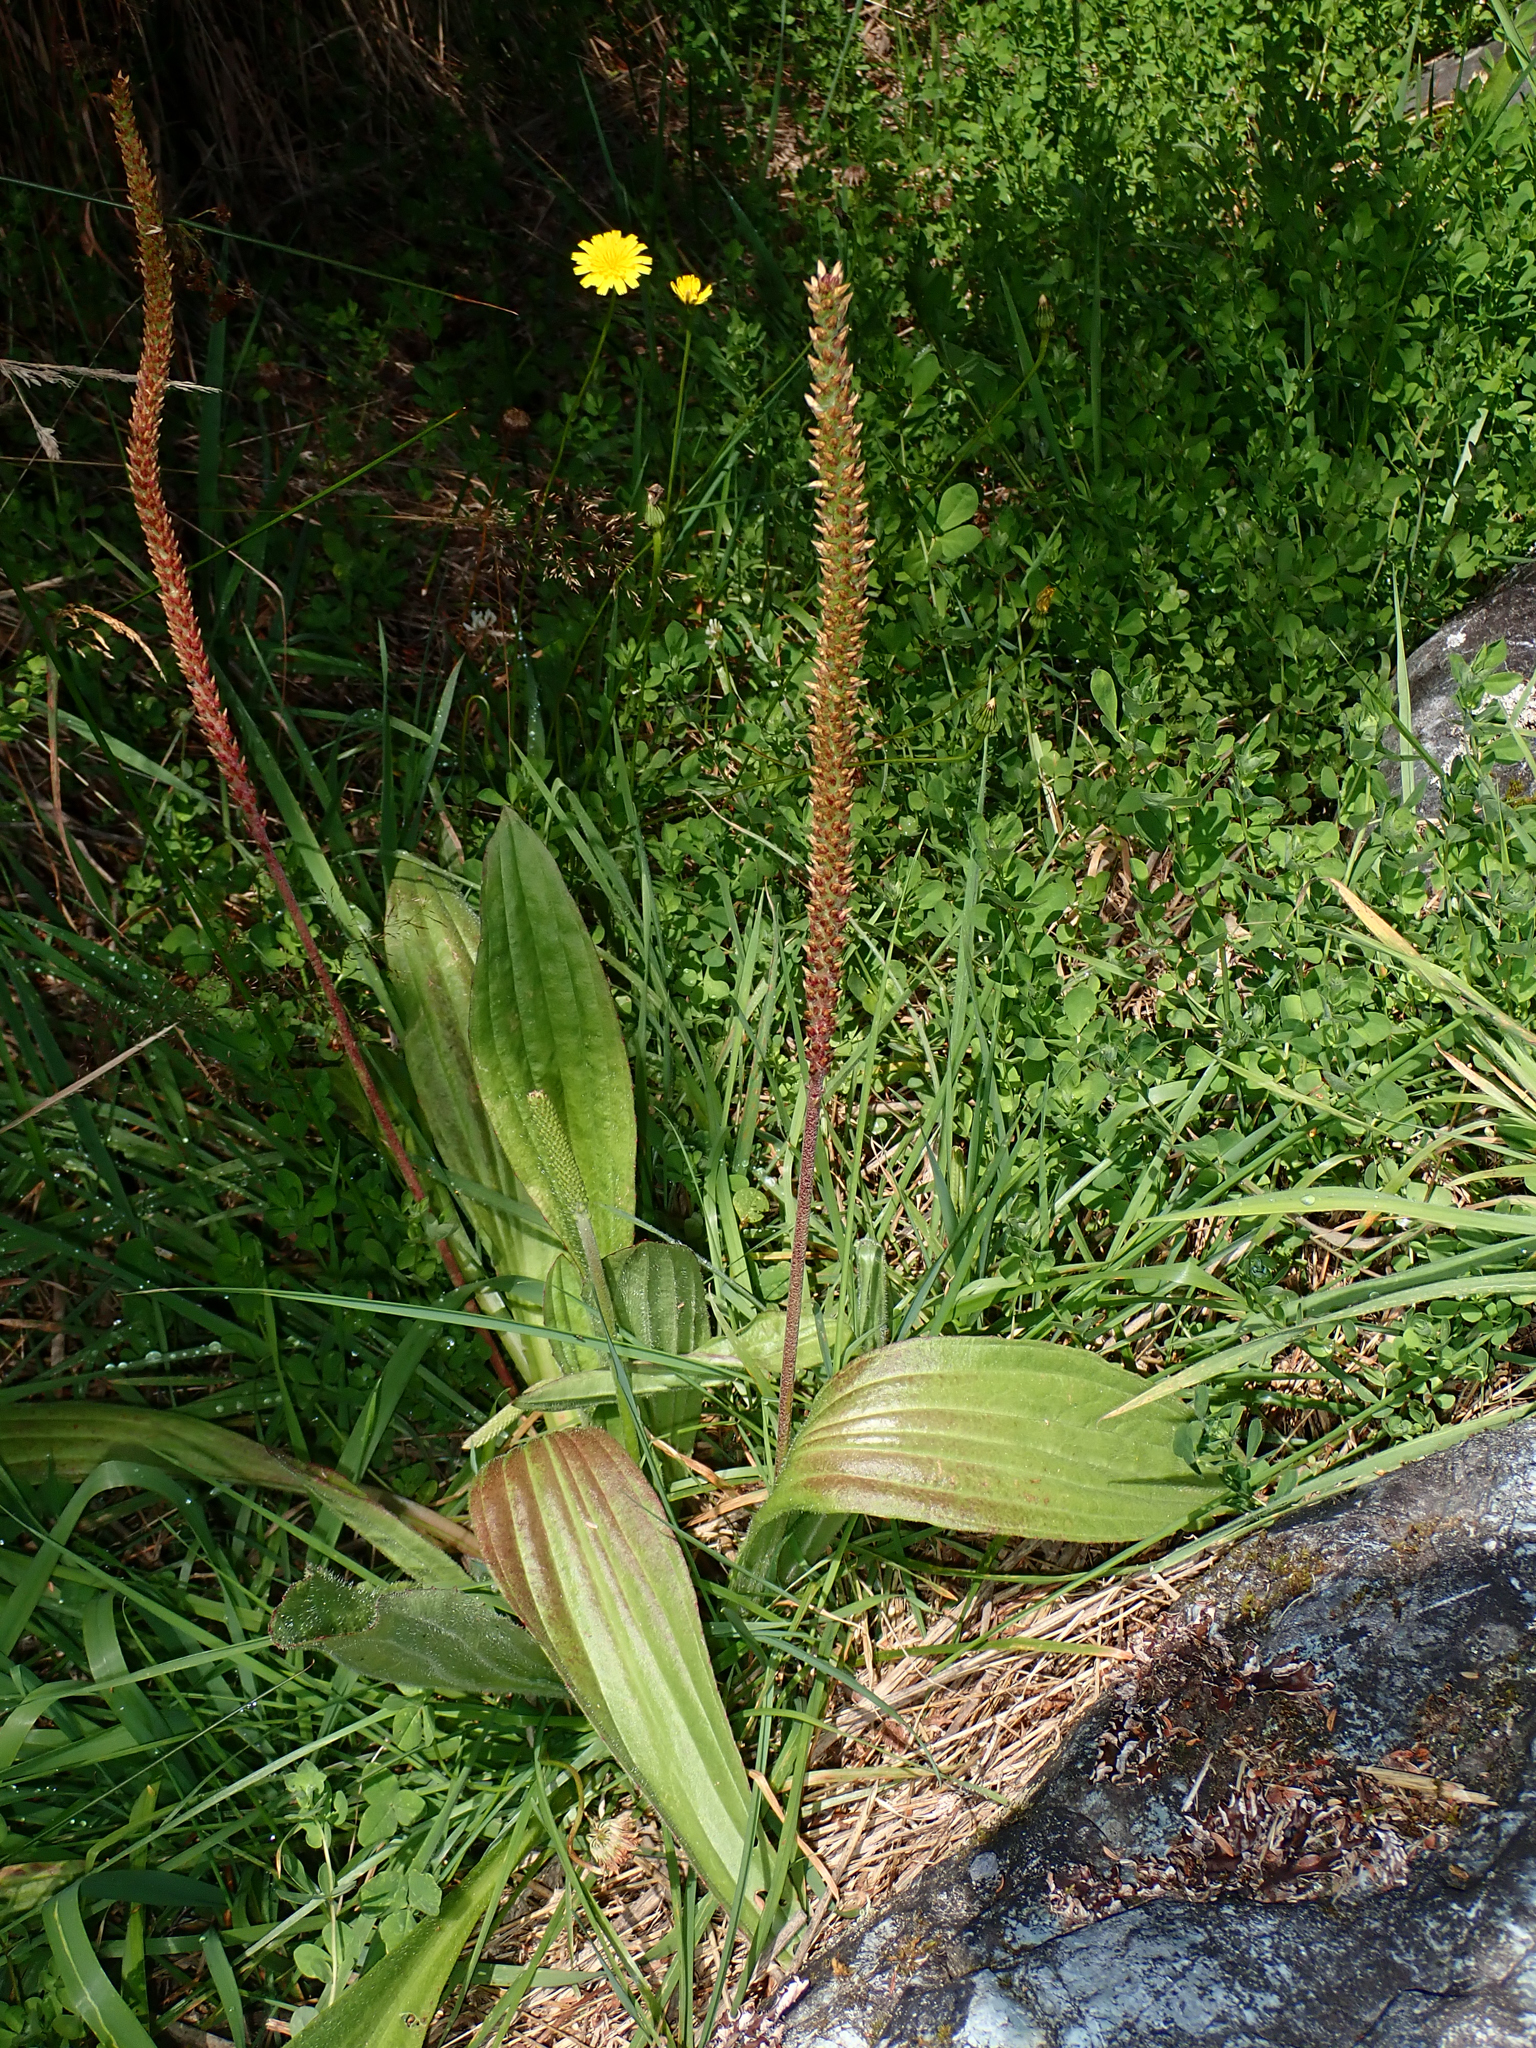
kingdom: Plantae
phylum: Tracheophyta
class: Magnoliopsida
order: Lamiales
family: Plantaginaceae
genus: Plantago
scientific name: Plantago australis
